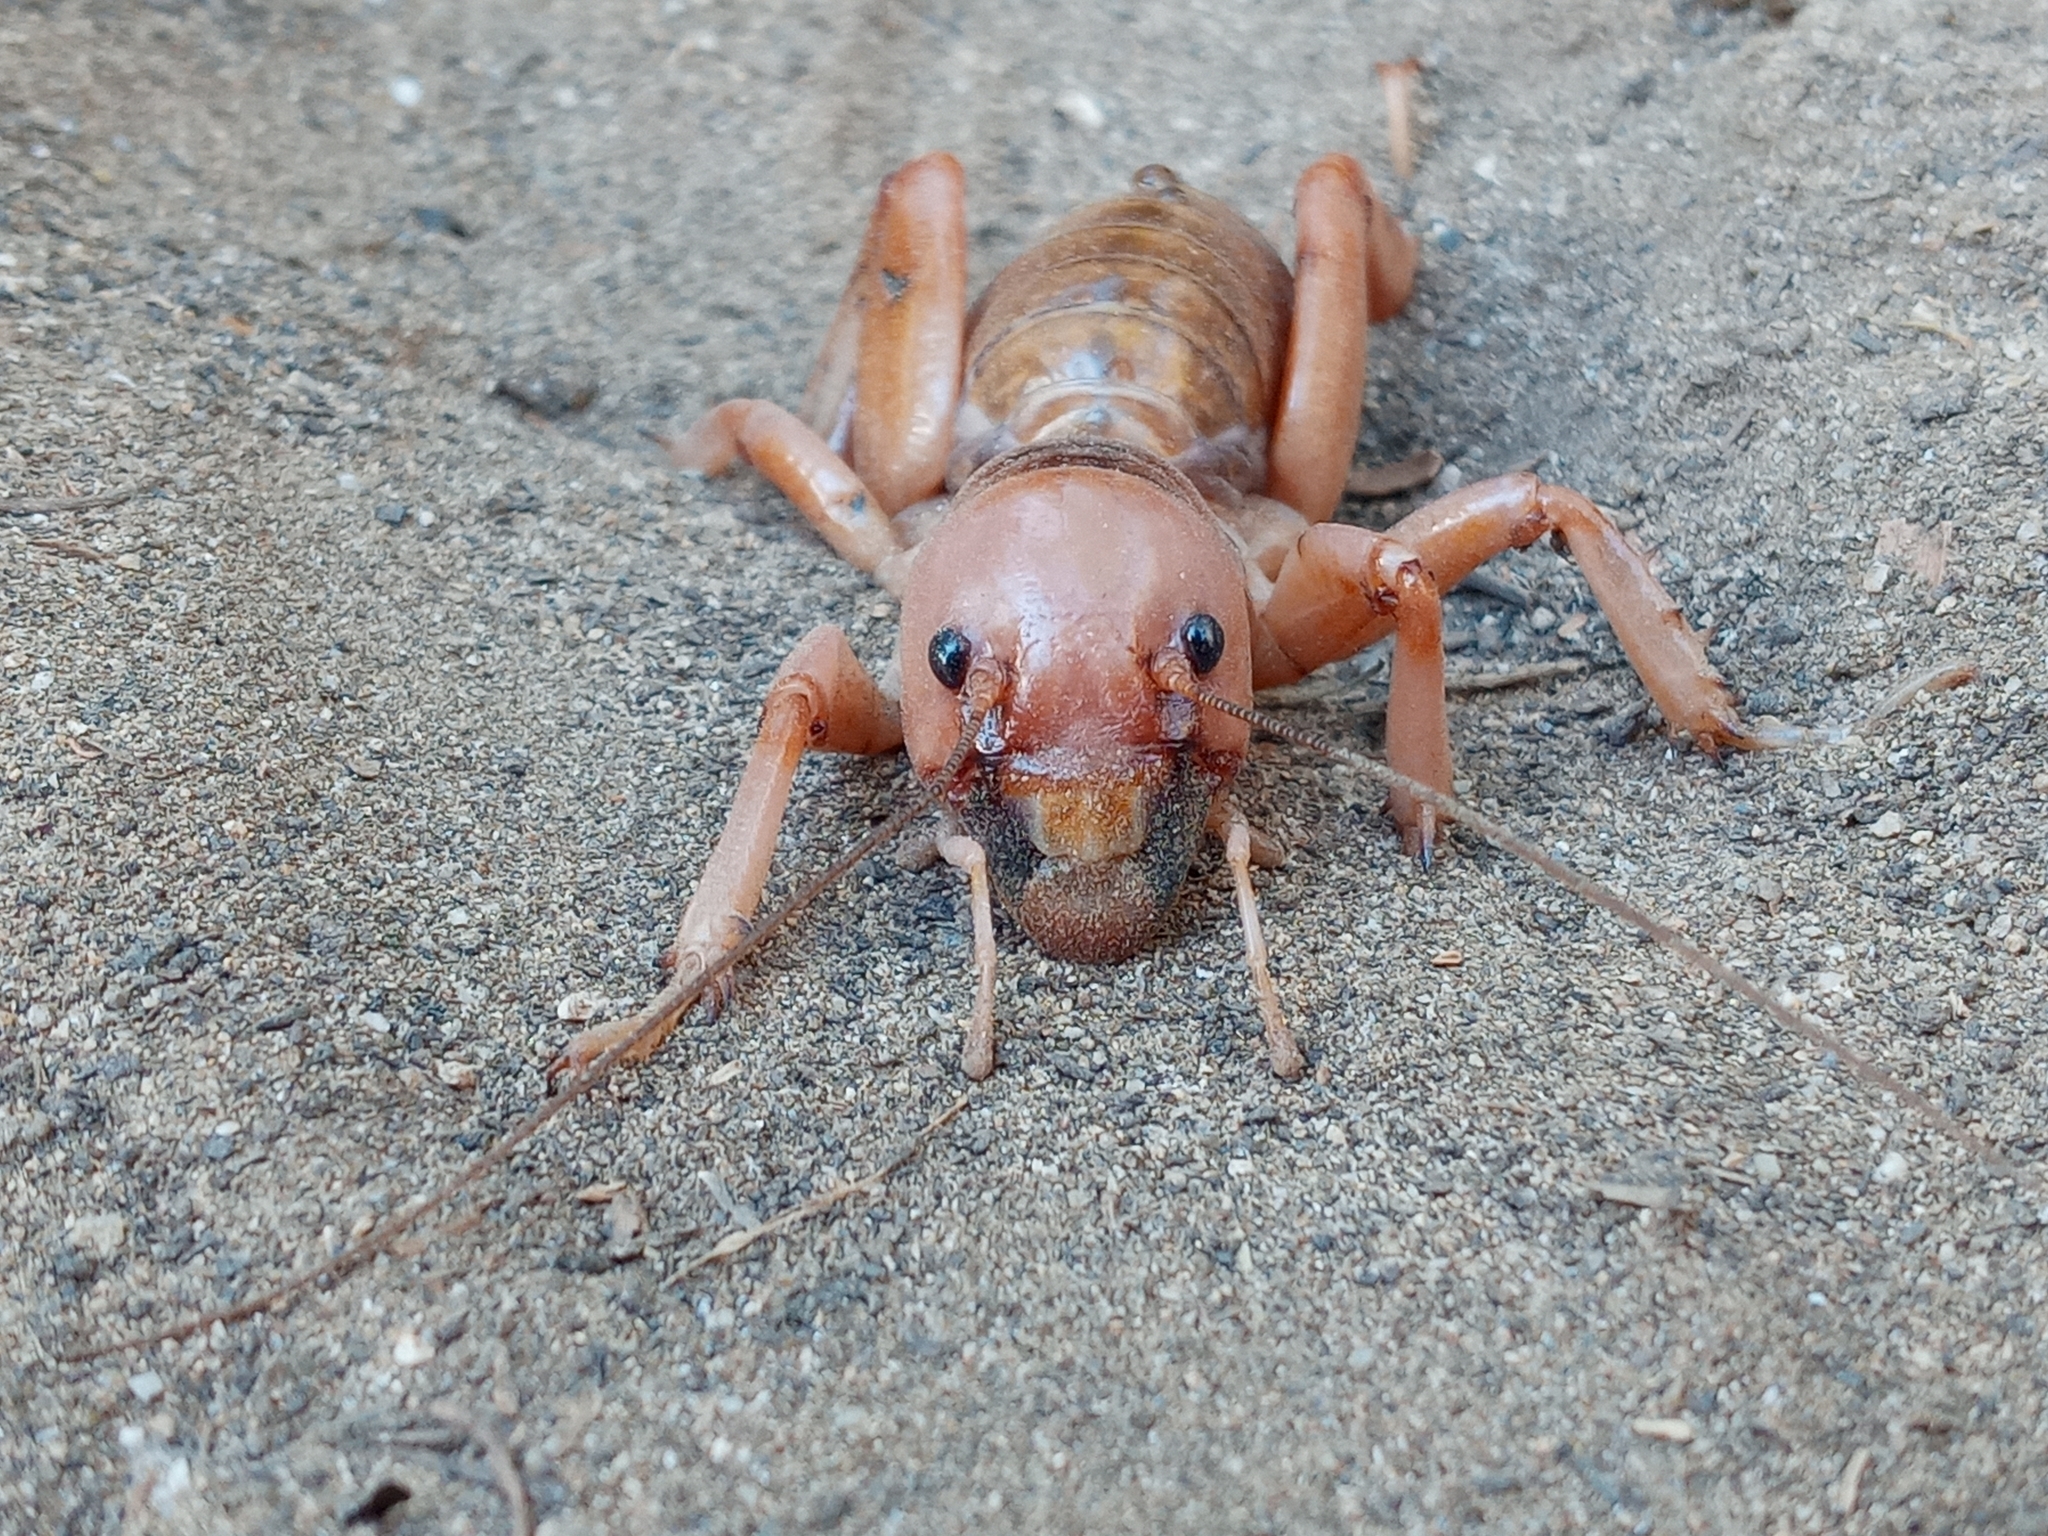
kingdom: Animalia
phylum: Arthropoda
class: Insecta
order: Orthoptera
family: Stenopelmatidae
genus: Ammopelmatus
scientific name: Ammopelmatus
